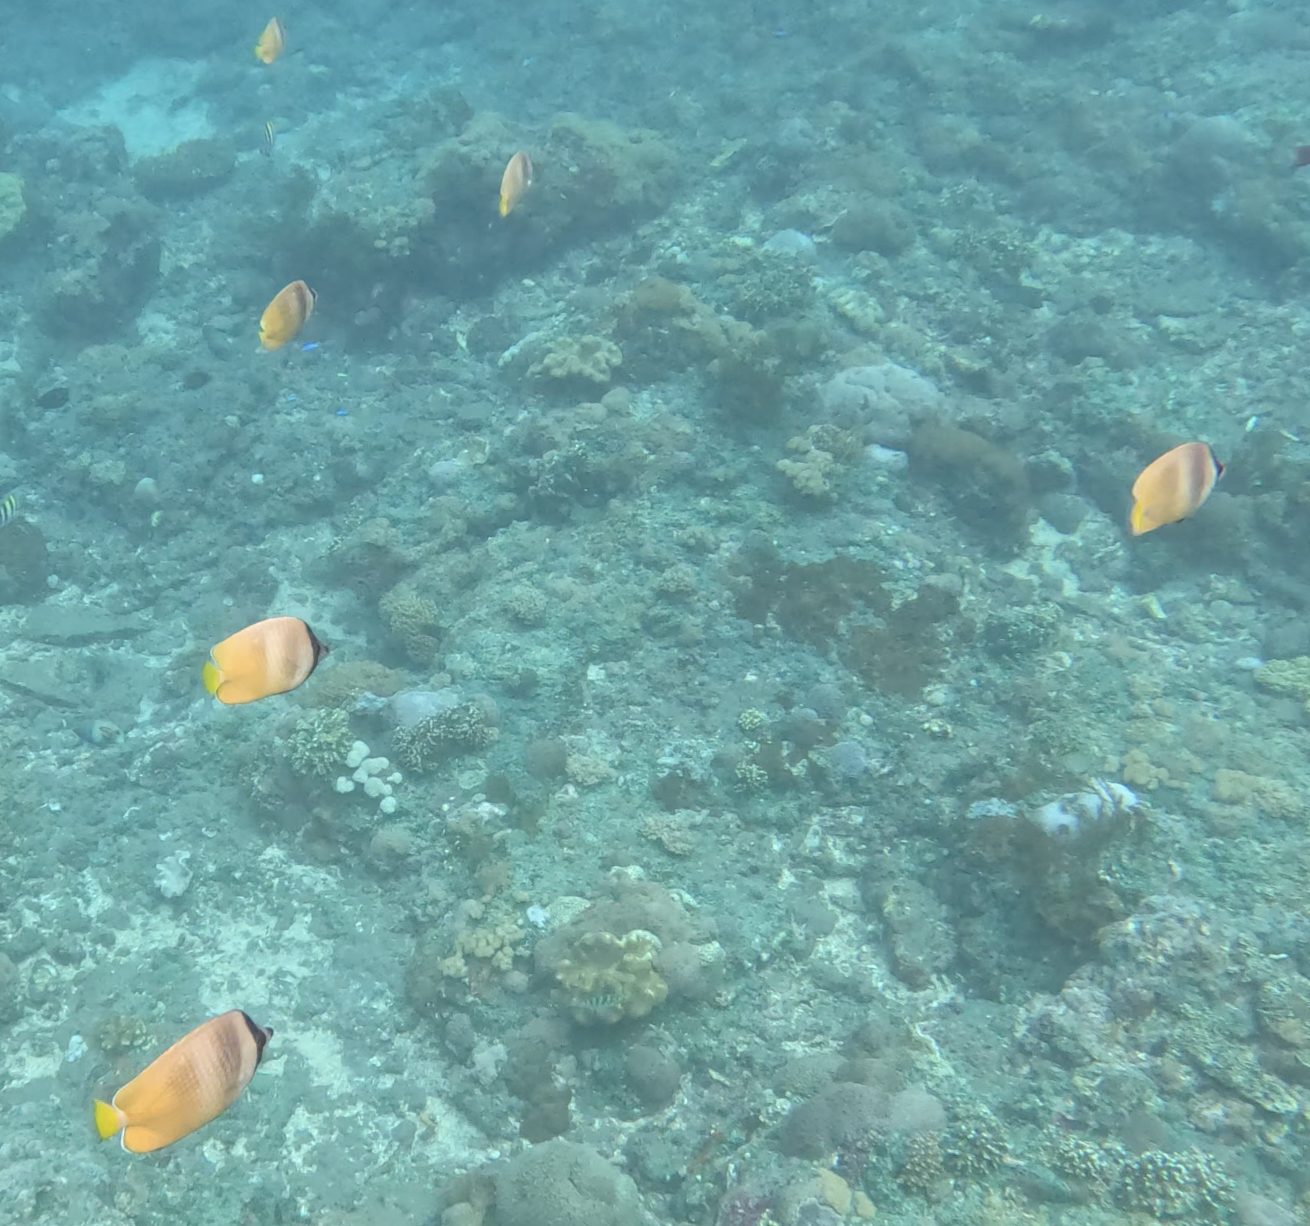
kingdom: Animalia
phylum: Chordata
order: Perciformes
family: Chaetodontidae
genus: Chaetodon
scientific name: Chaetodon kleinii
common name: Klein's butterflyfish
